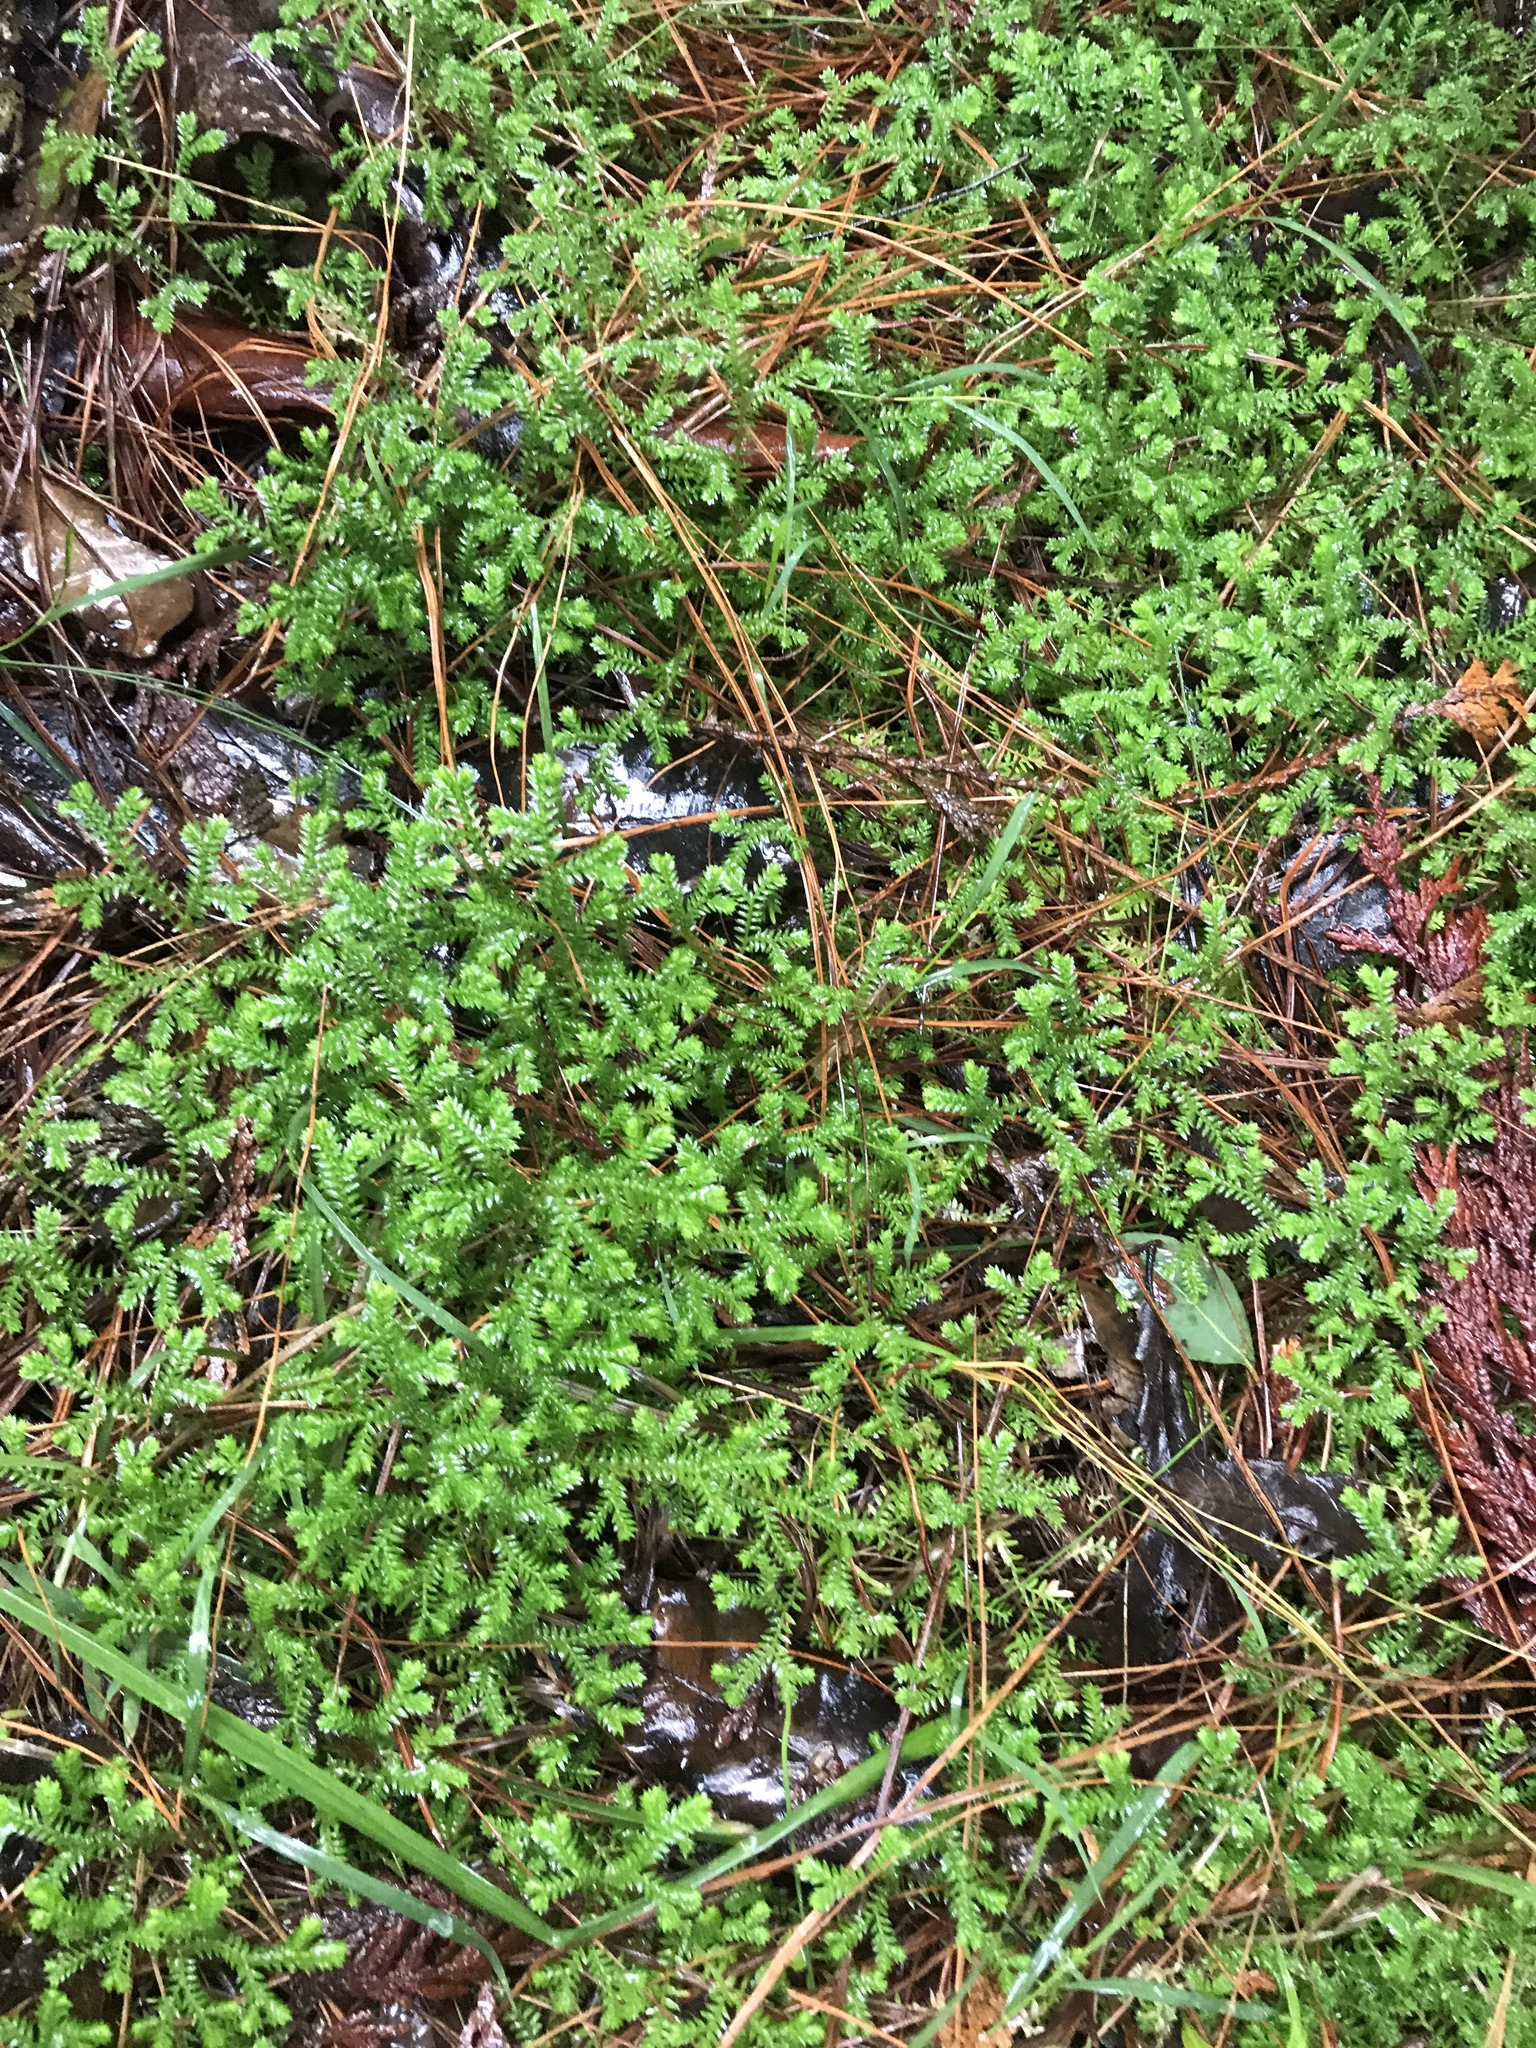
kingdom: Plantae
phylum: Tracheophyta
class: Lycopodiopsida
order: Selaginellales
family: Selaginellaceae
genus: Selaginella
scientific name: Selaginella kraussiana
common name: Krauss' spikemoss
